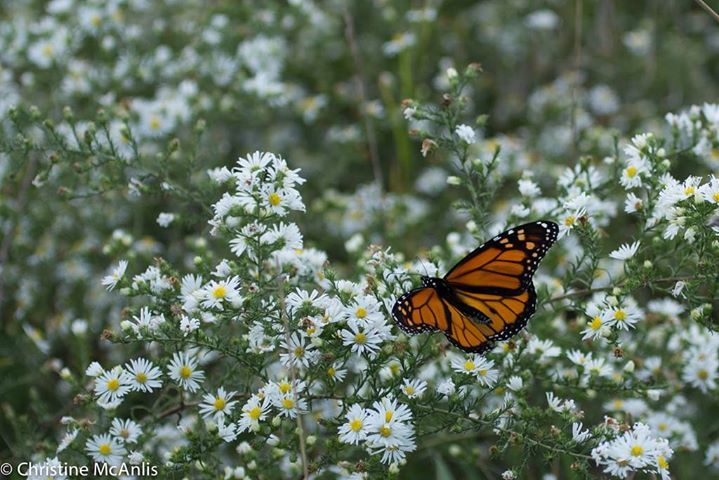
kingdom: Animalia
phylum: Arthropoda
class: Insecta
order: Lepidoptera
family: Nymphalidae
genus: Danaus
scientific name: Danaus plexippus
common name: Monarch
